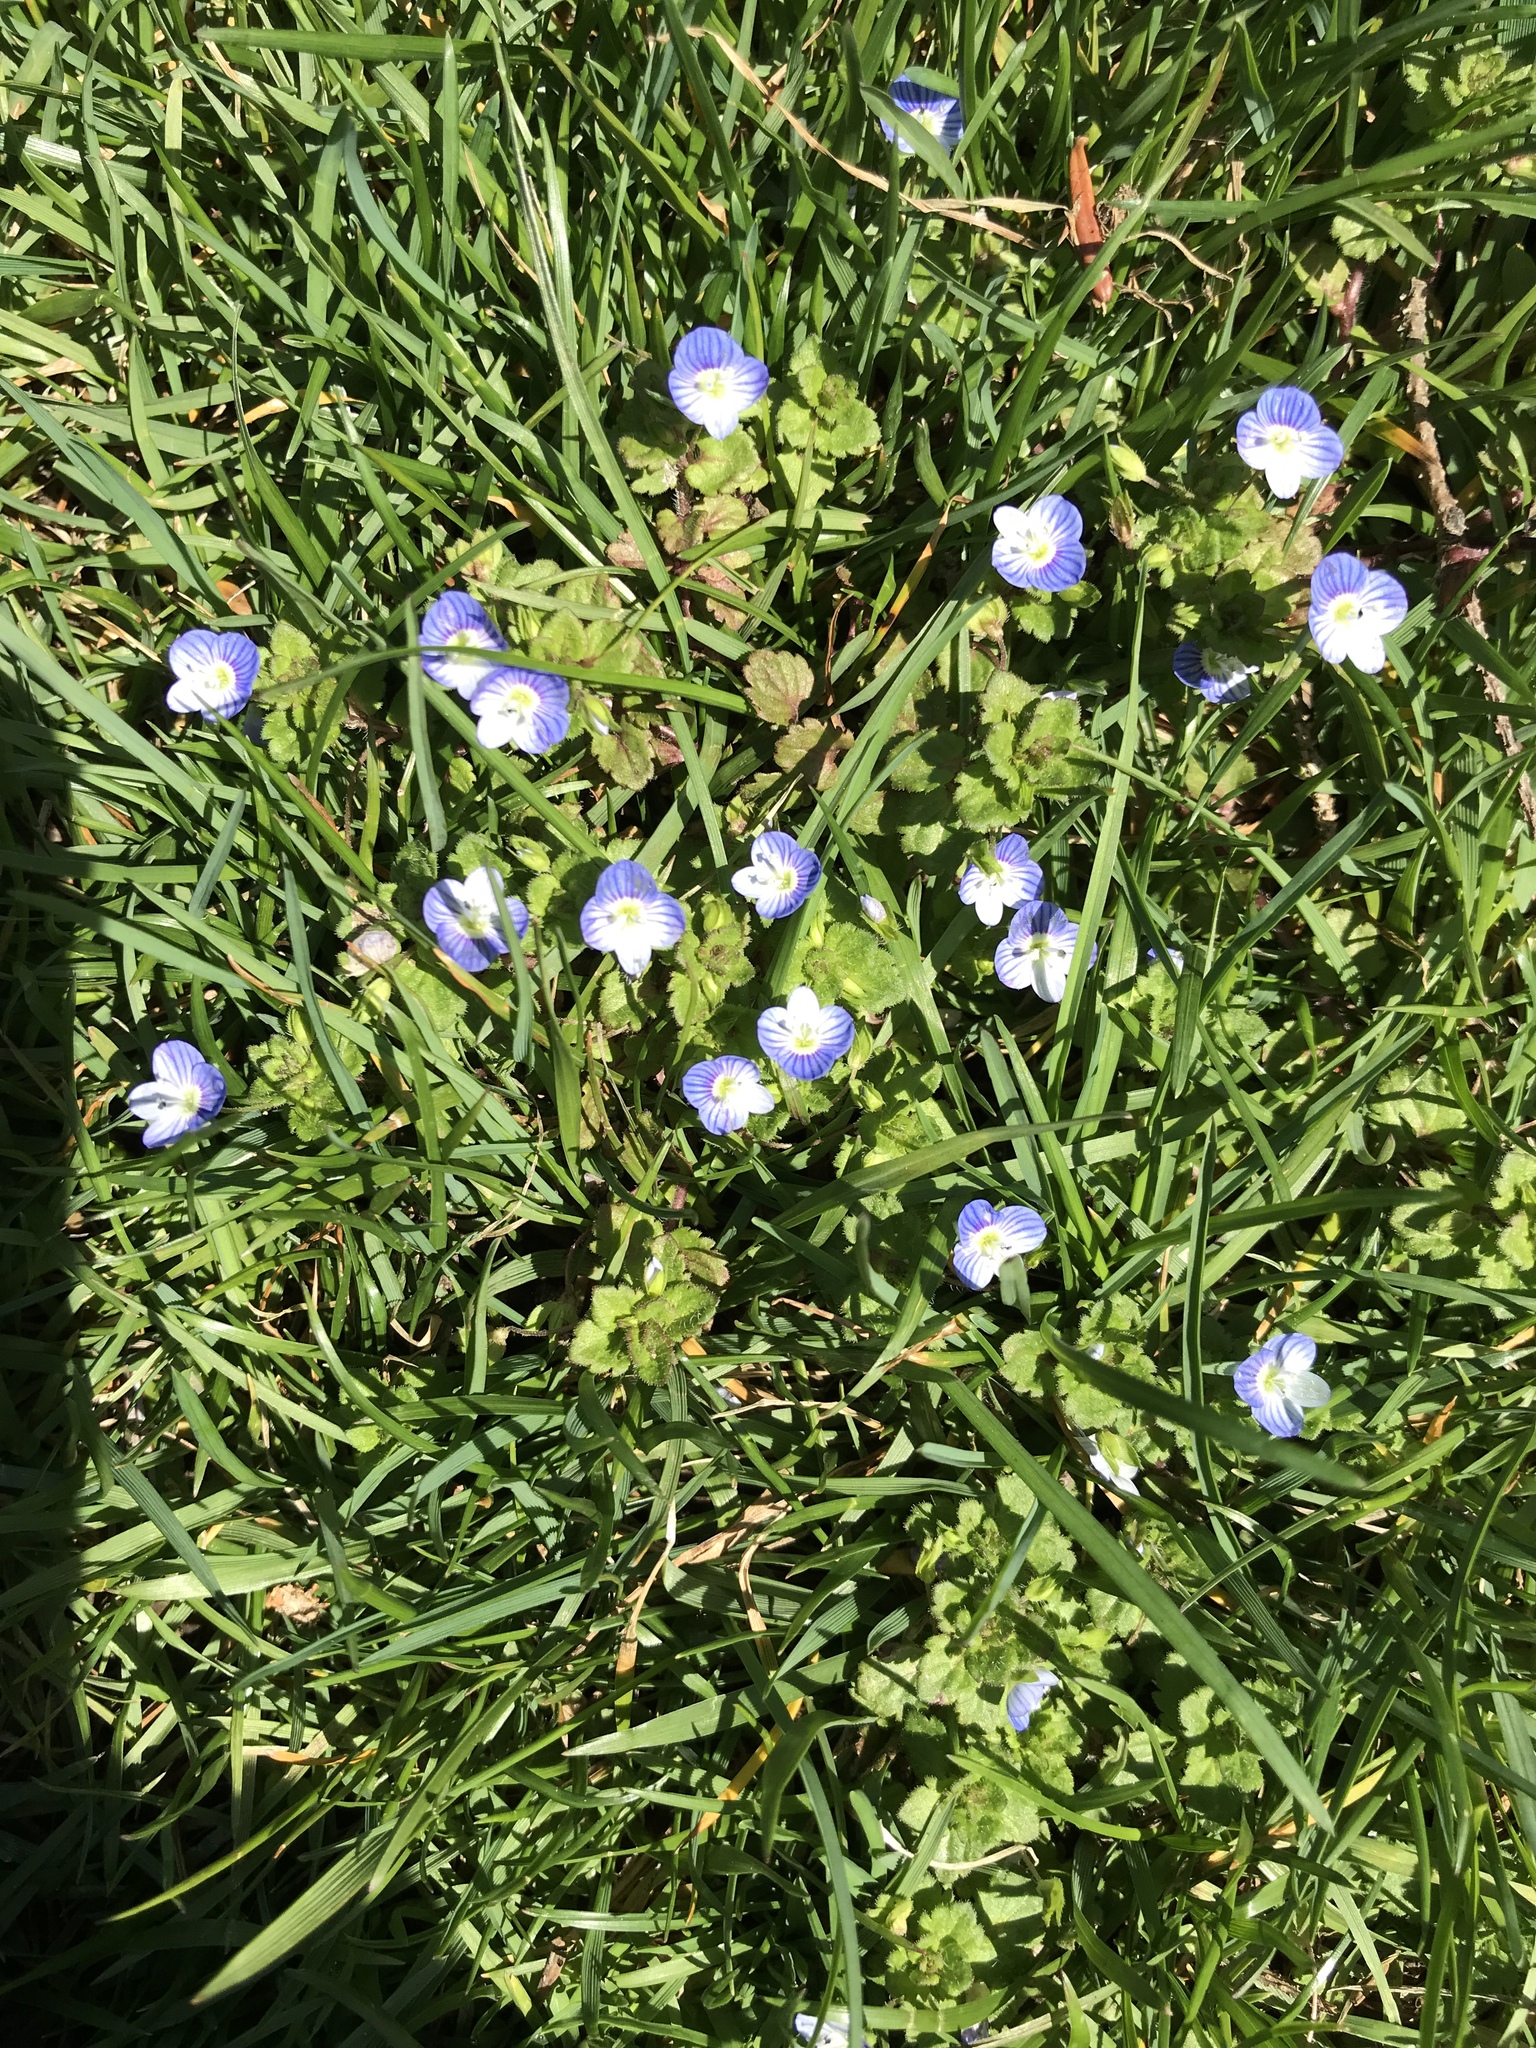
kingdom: Plantae
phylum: Tracheophyta
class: Magnoliopsida
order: Lamiales
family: Plantaginaceae
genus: Veronica
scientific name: Veronica persica
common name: Common field-speedwell
